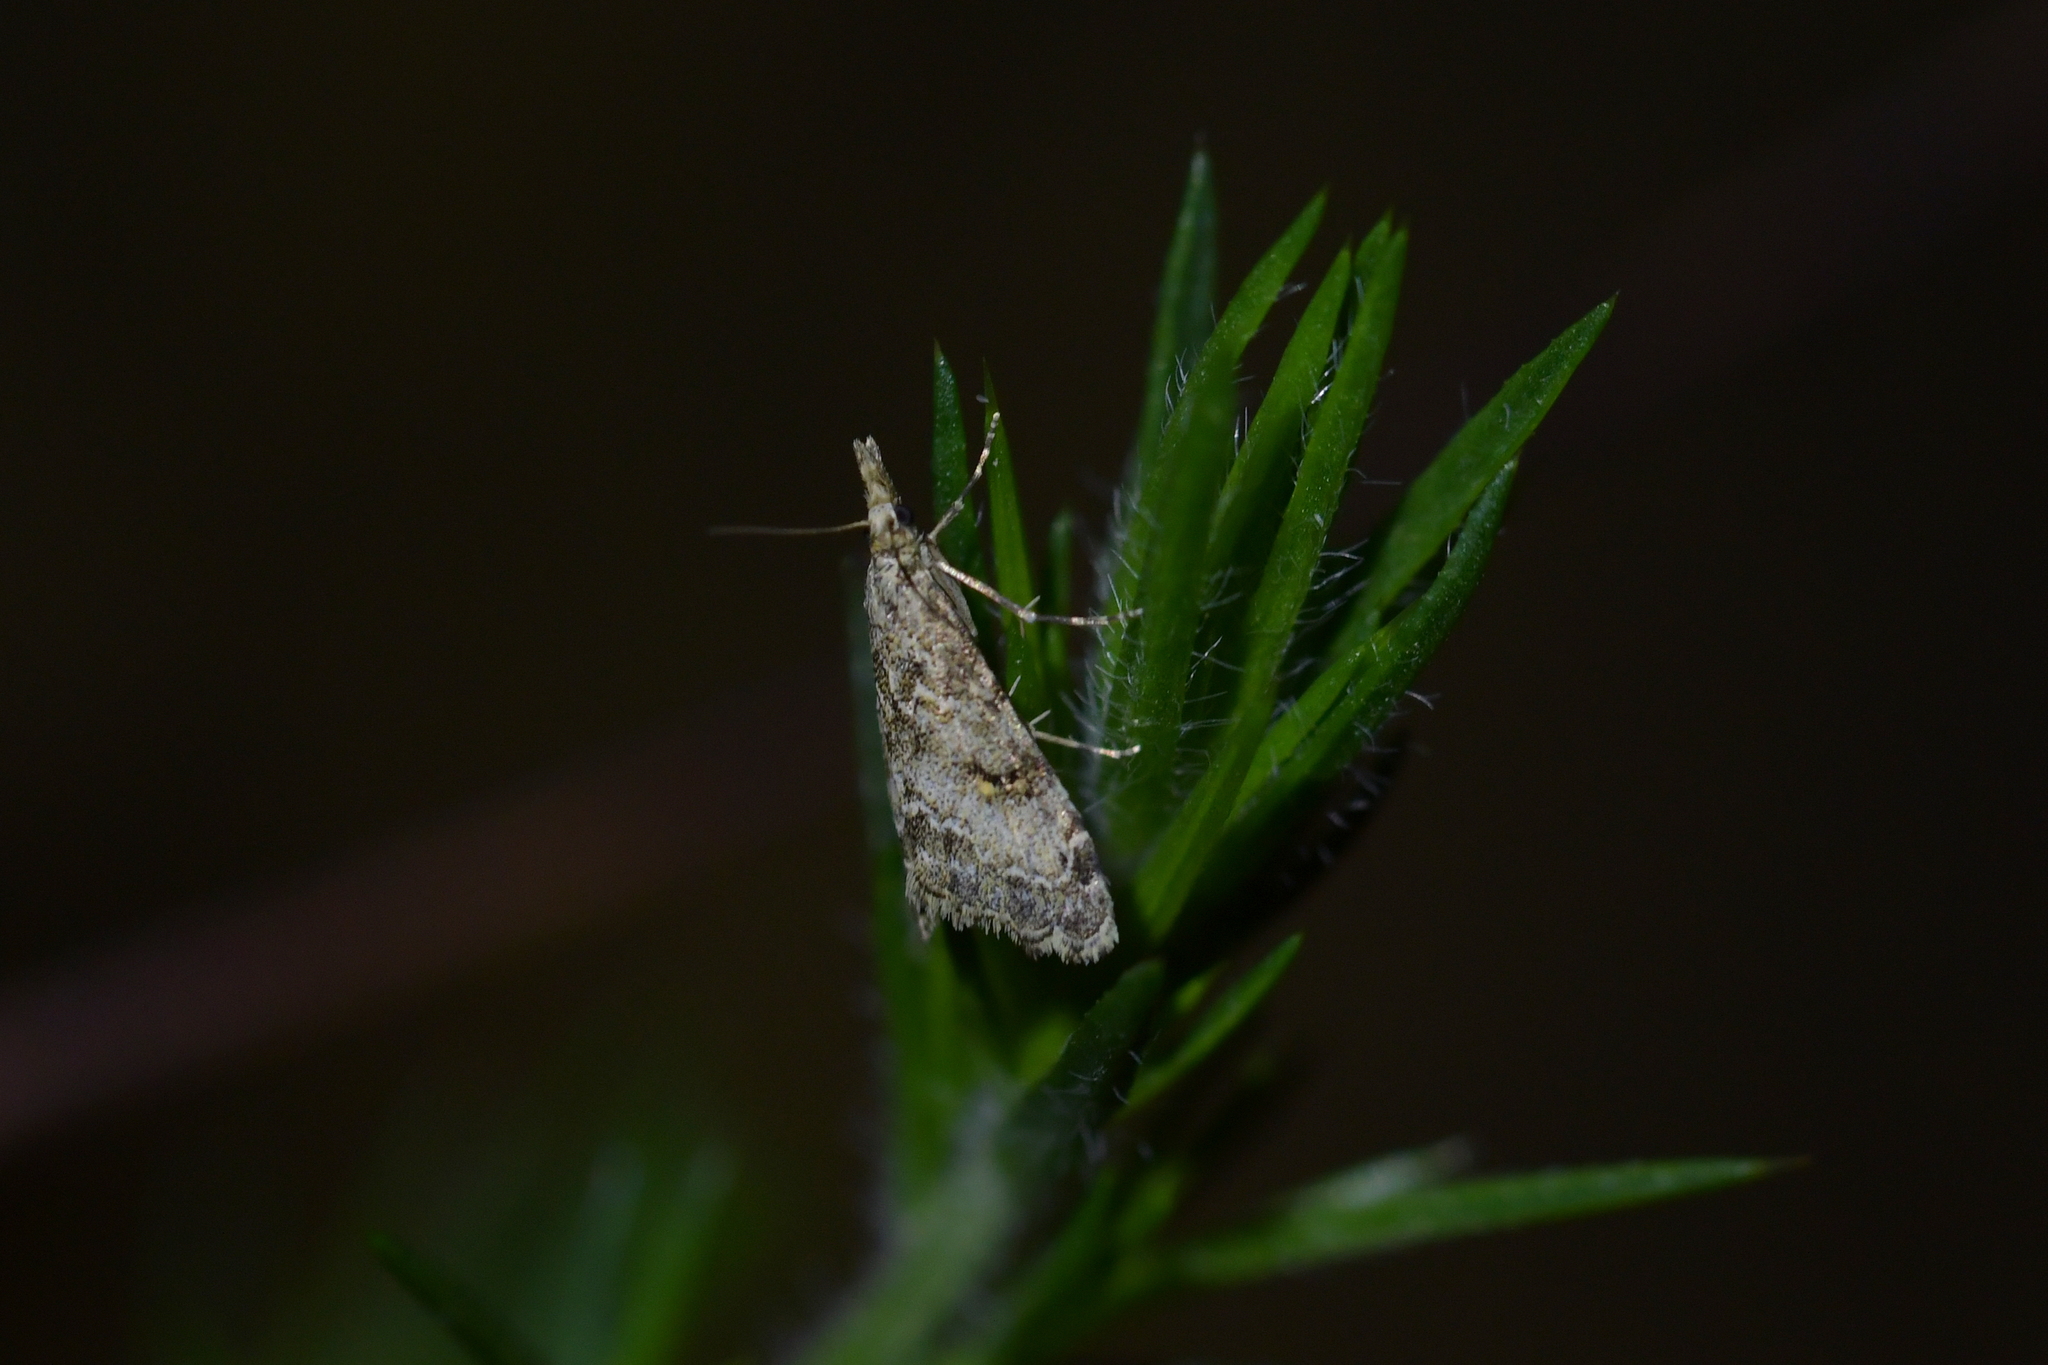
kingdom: Animalia
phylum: Arthropoda
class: Insecta
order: Lepidoptera
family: Crambidae
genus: Glaucocharis
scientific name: Glaucocharis elaina
